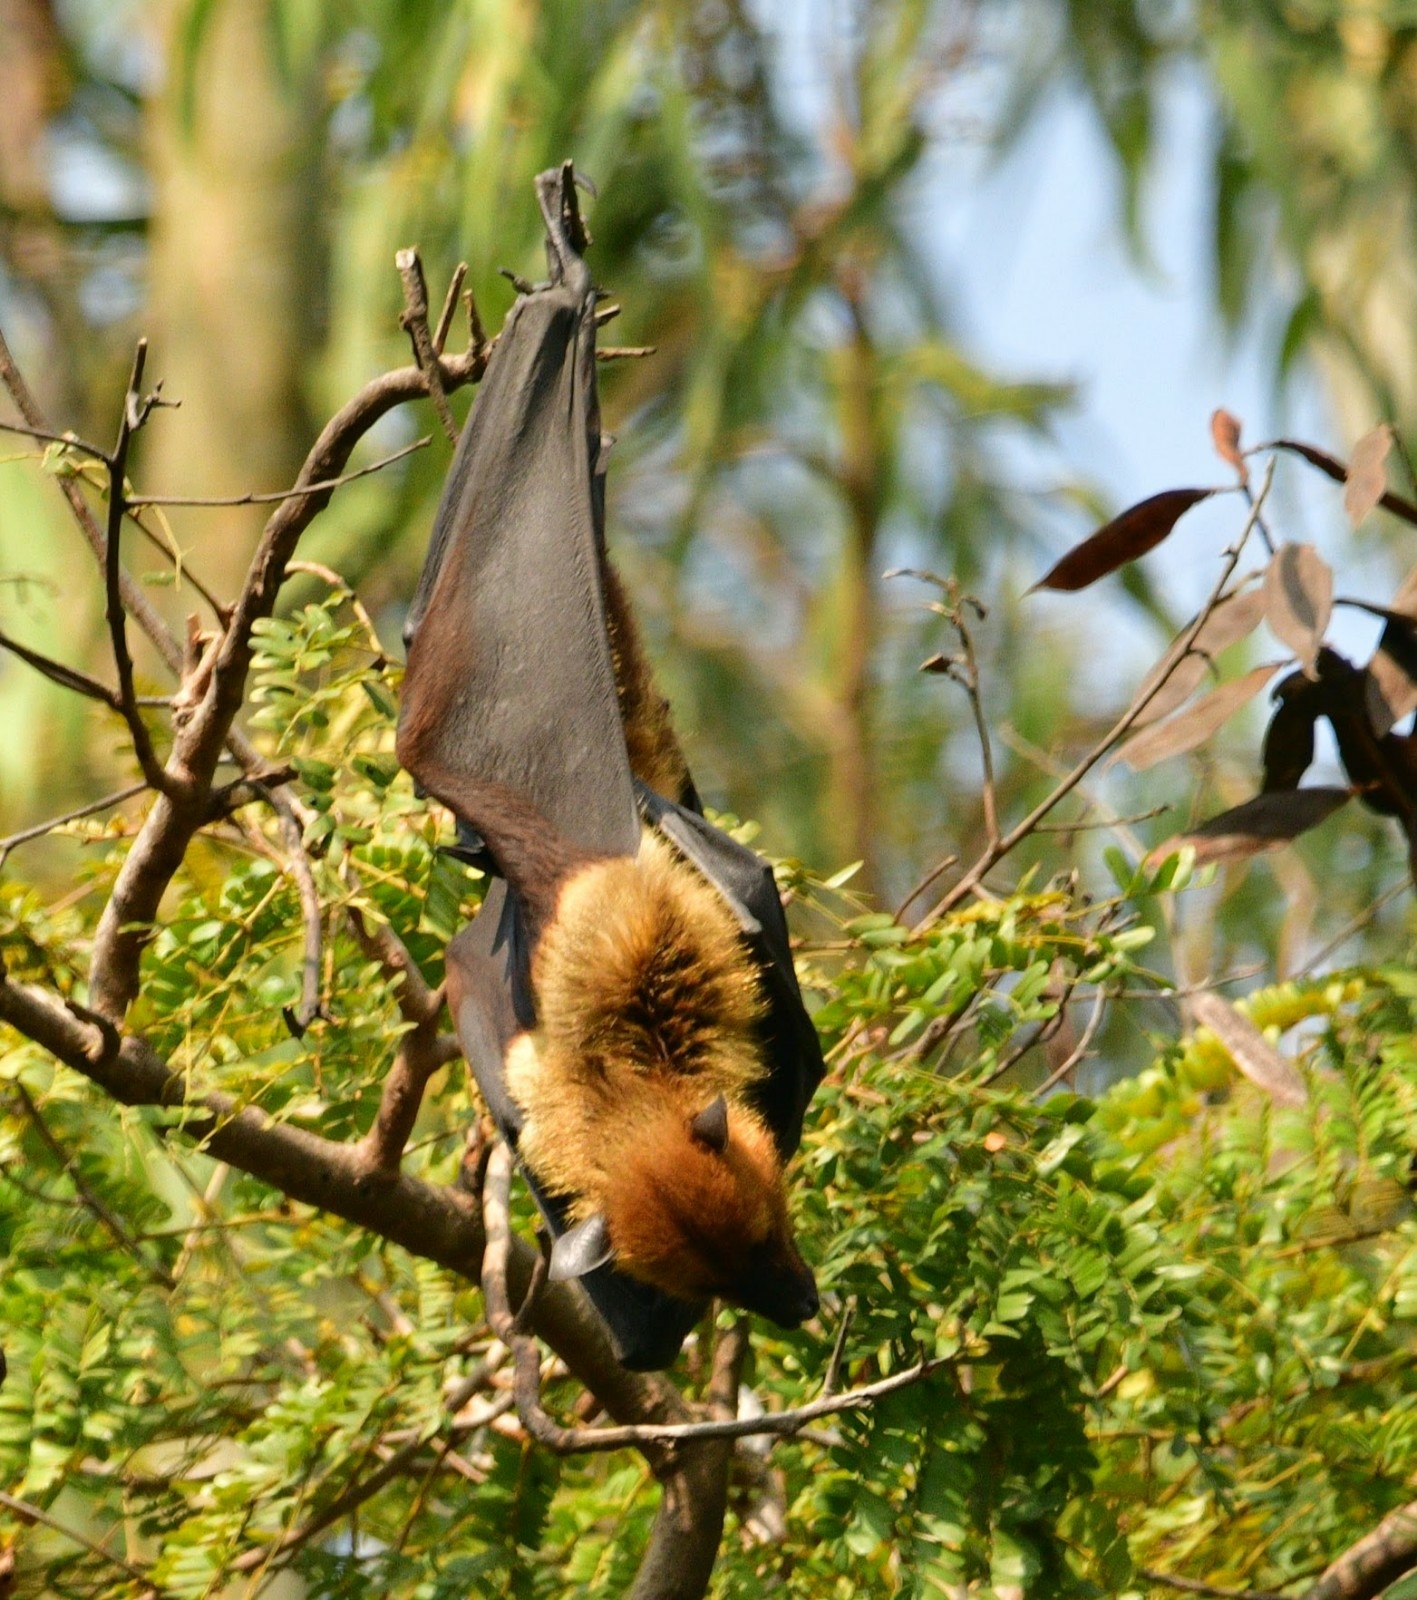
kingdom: Animalia
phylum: Chordata
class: Mammalia
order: Chiroptera
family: Pteropodidae
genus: Pteropus
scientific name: Pteropus vampyrus
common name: Large flying fox
